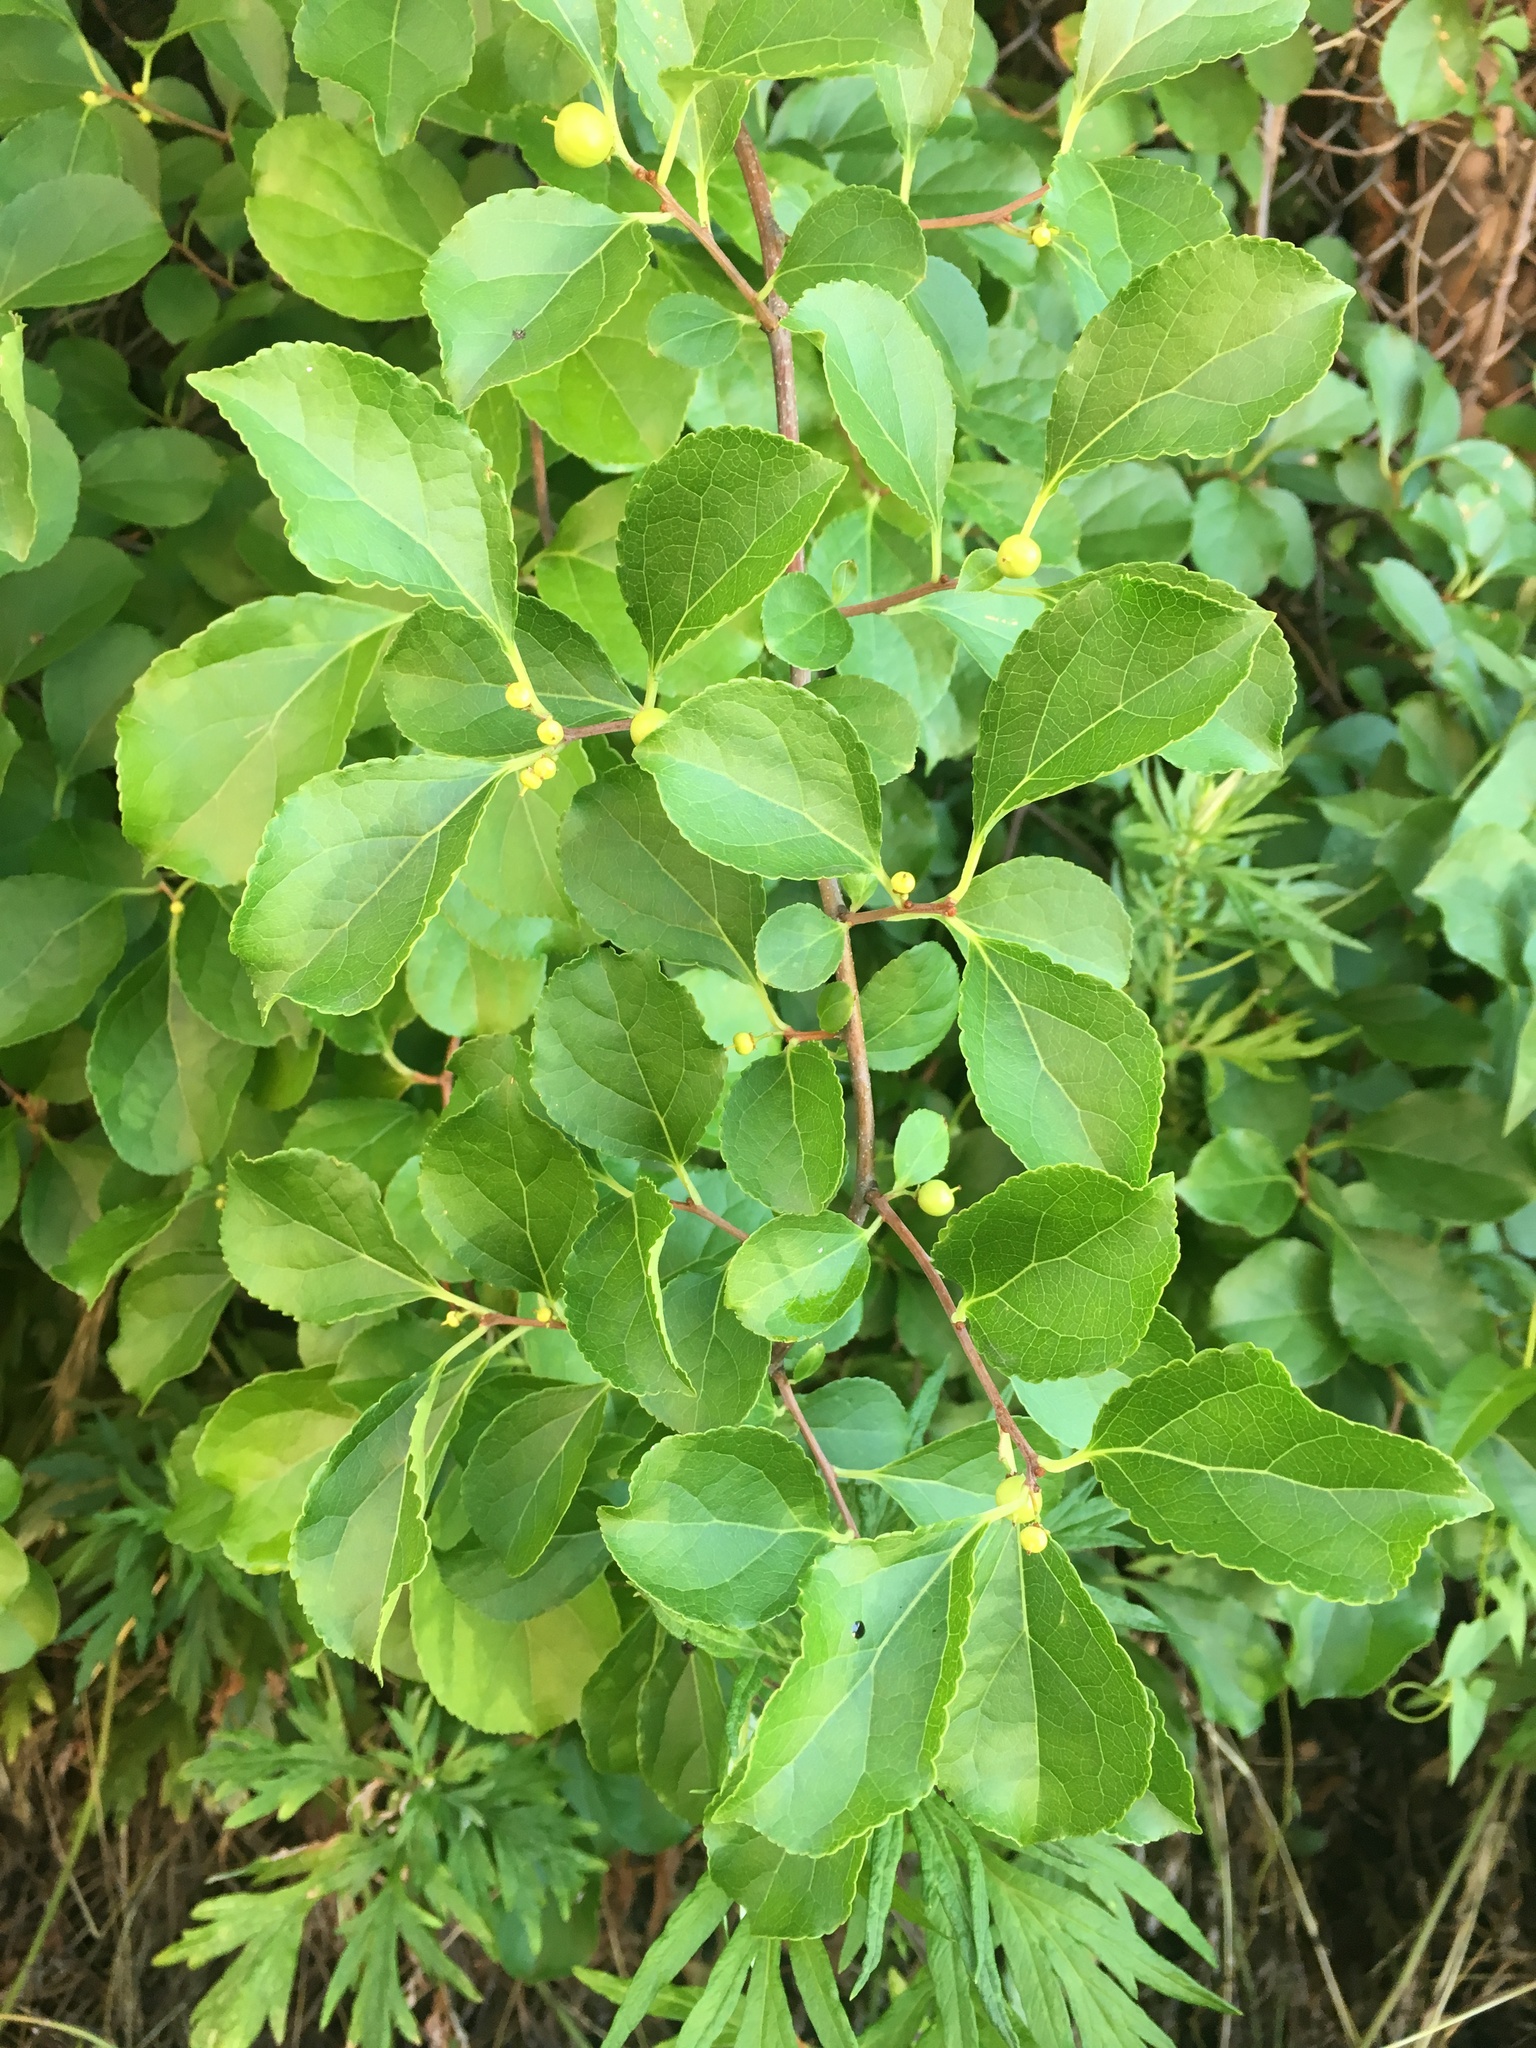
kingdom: Plantae
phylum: Tracheophyta
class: Magnoliopsida
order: Celastrales
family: Celastraceae
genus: Celastrus
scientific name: Celastrus orbiculatus
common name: Oriental bittersweet
